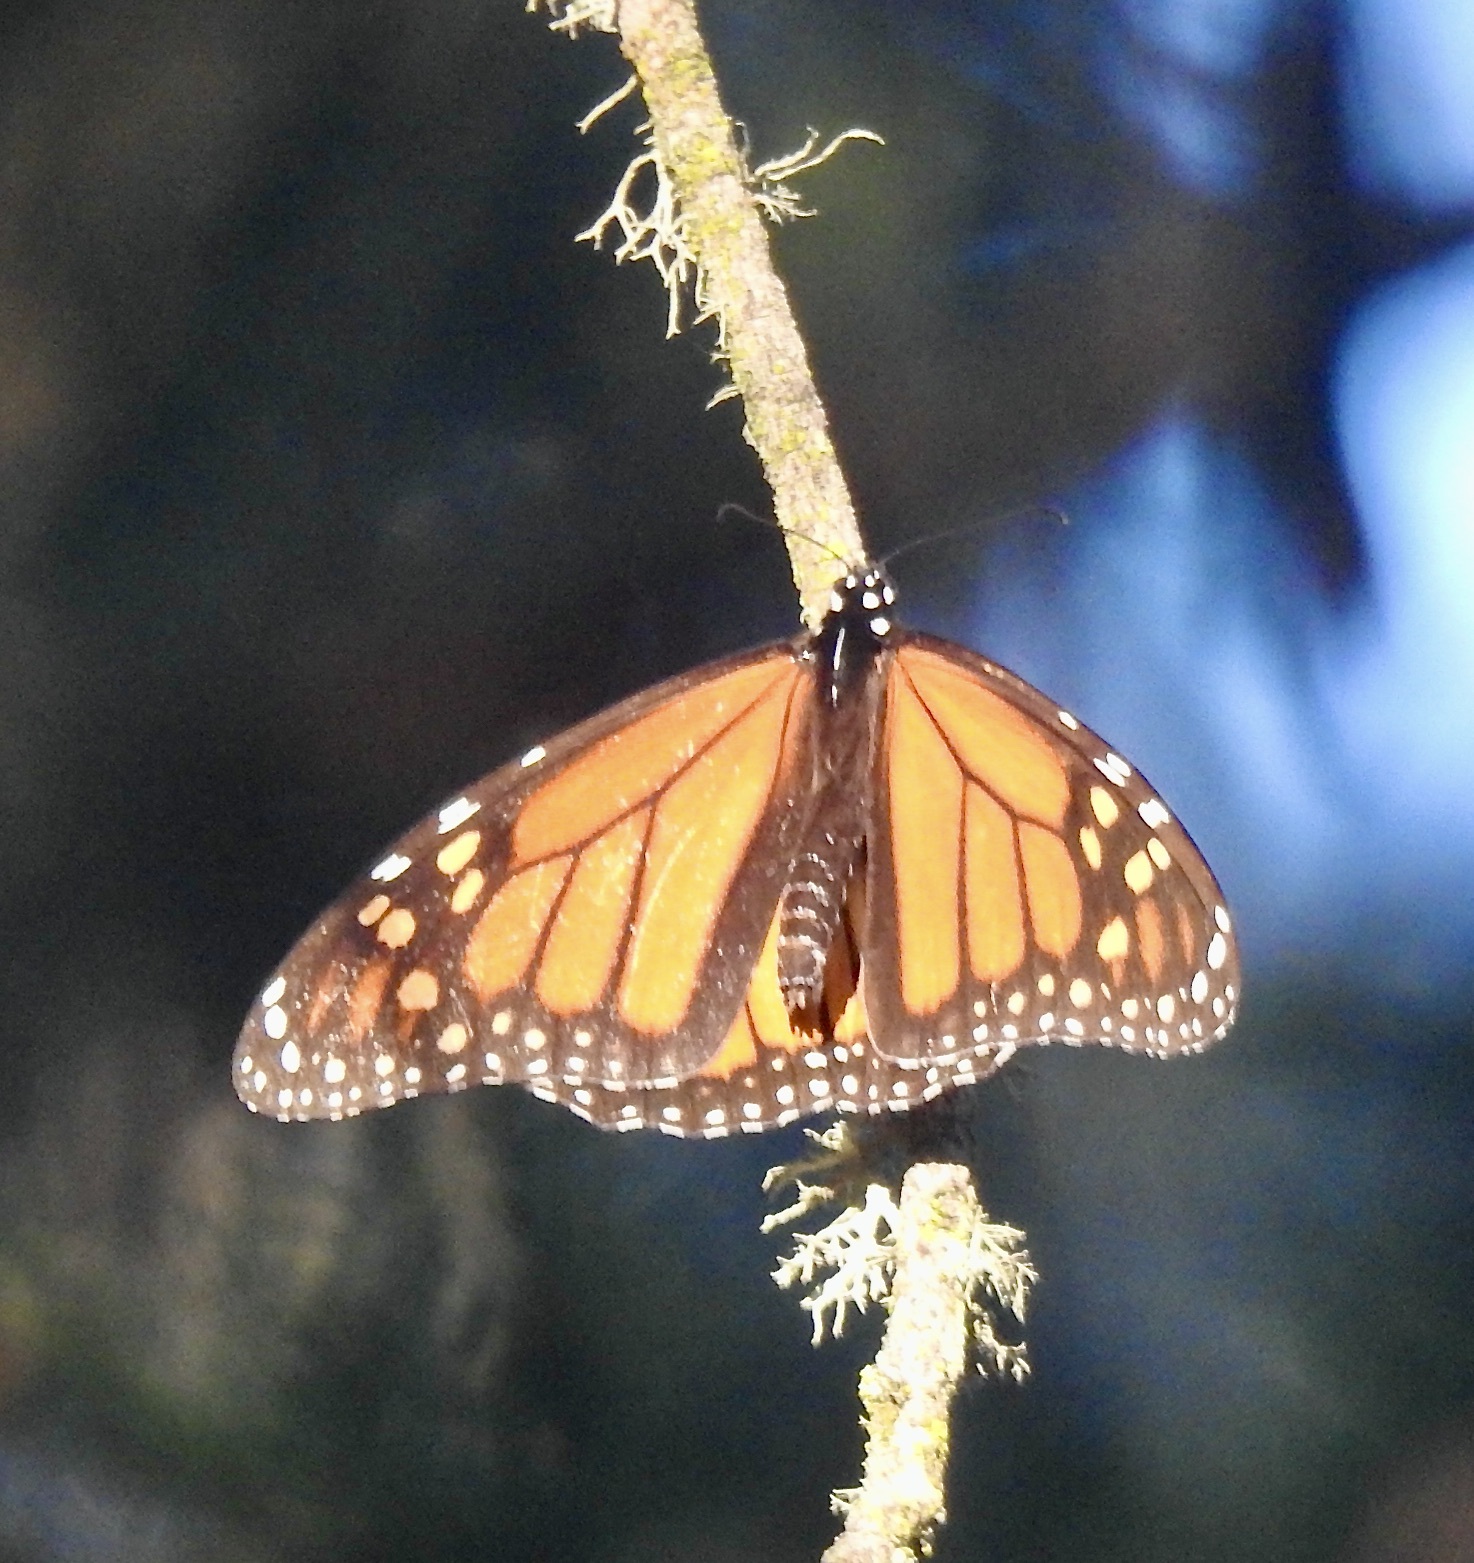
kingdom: Animalia
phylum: Arthropoda
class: Insecta
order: Lepidoptera
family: Nymphalidae
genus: Danaus
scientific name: Danaus plexippus
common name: Monarch
